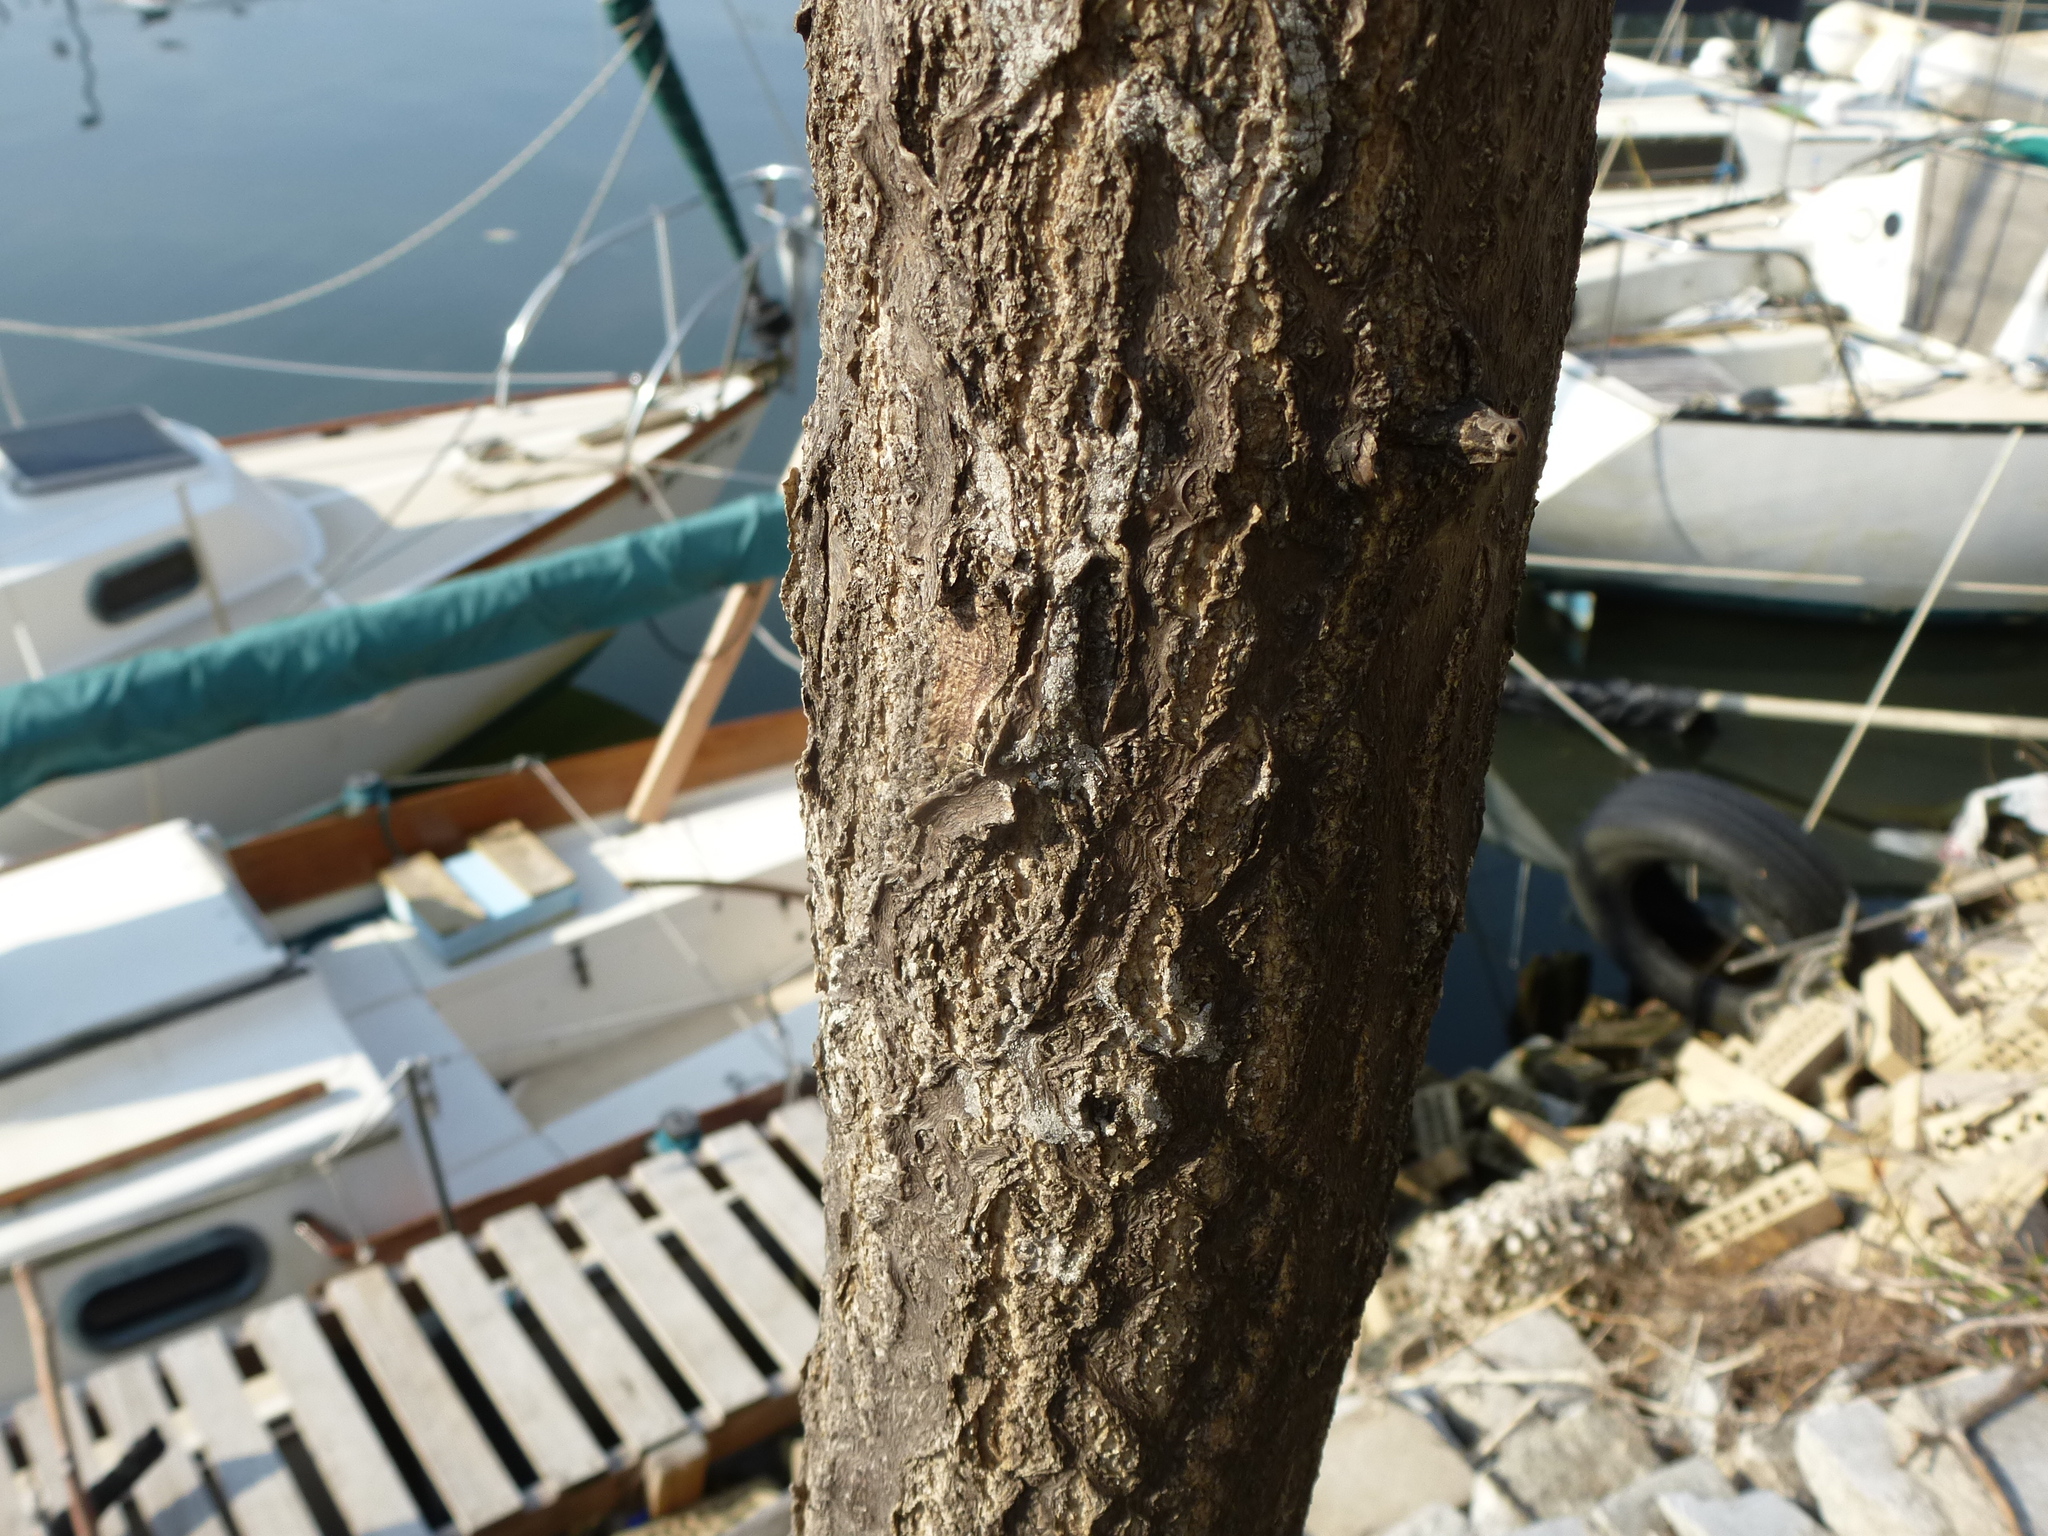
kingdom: Plantae
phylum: Tracheophyta
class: Magnoliopsida
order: Sapindales
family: Simaroubaceae
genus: Ailanthus
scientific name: Ailanthus altissima
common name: Tree-of-heaven
